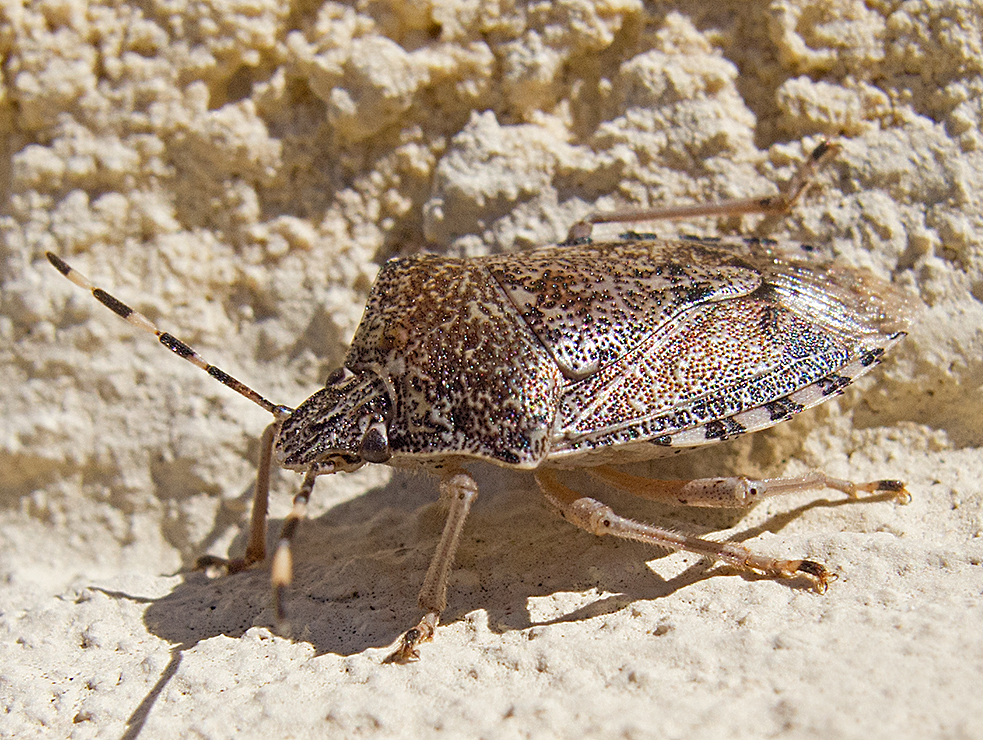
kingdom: Animalia
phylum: Arthropoda
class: Insecta
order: Hemiptera
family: Pentatomidae
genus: Rhaphigaster
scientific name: Rhaphigaster nebulosa
